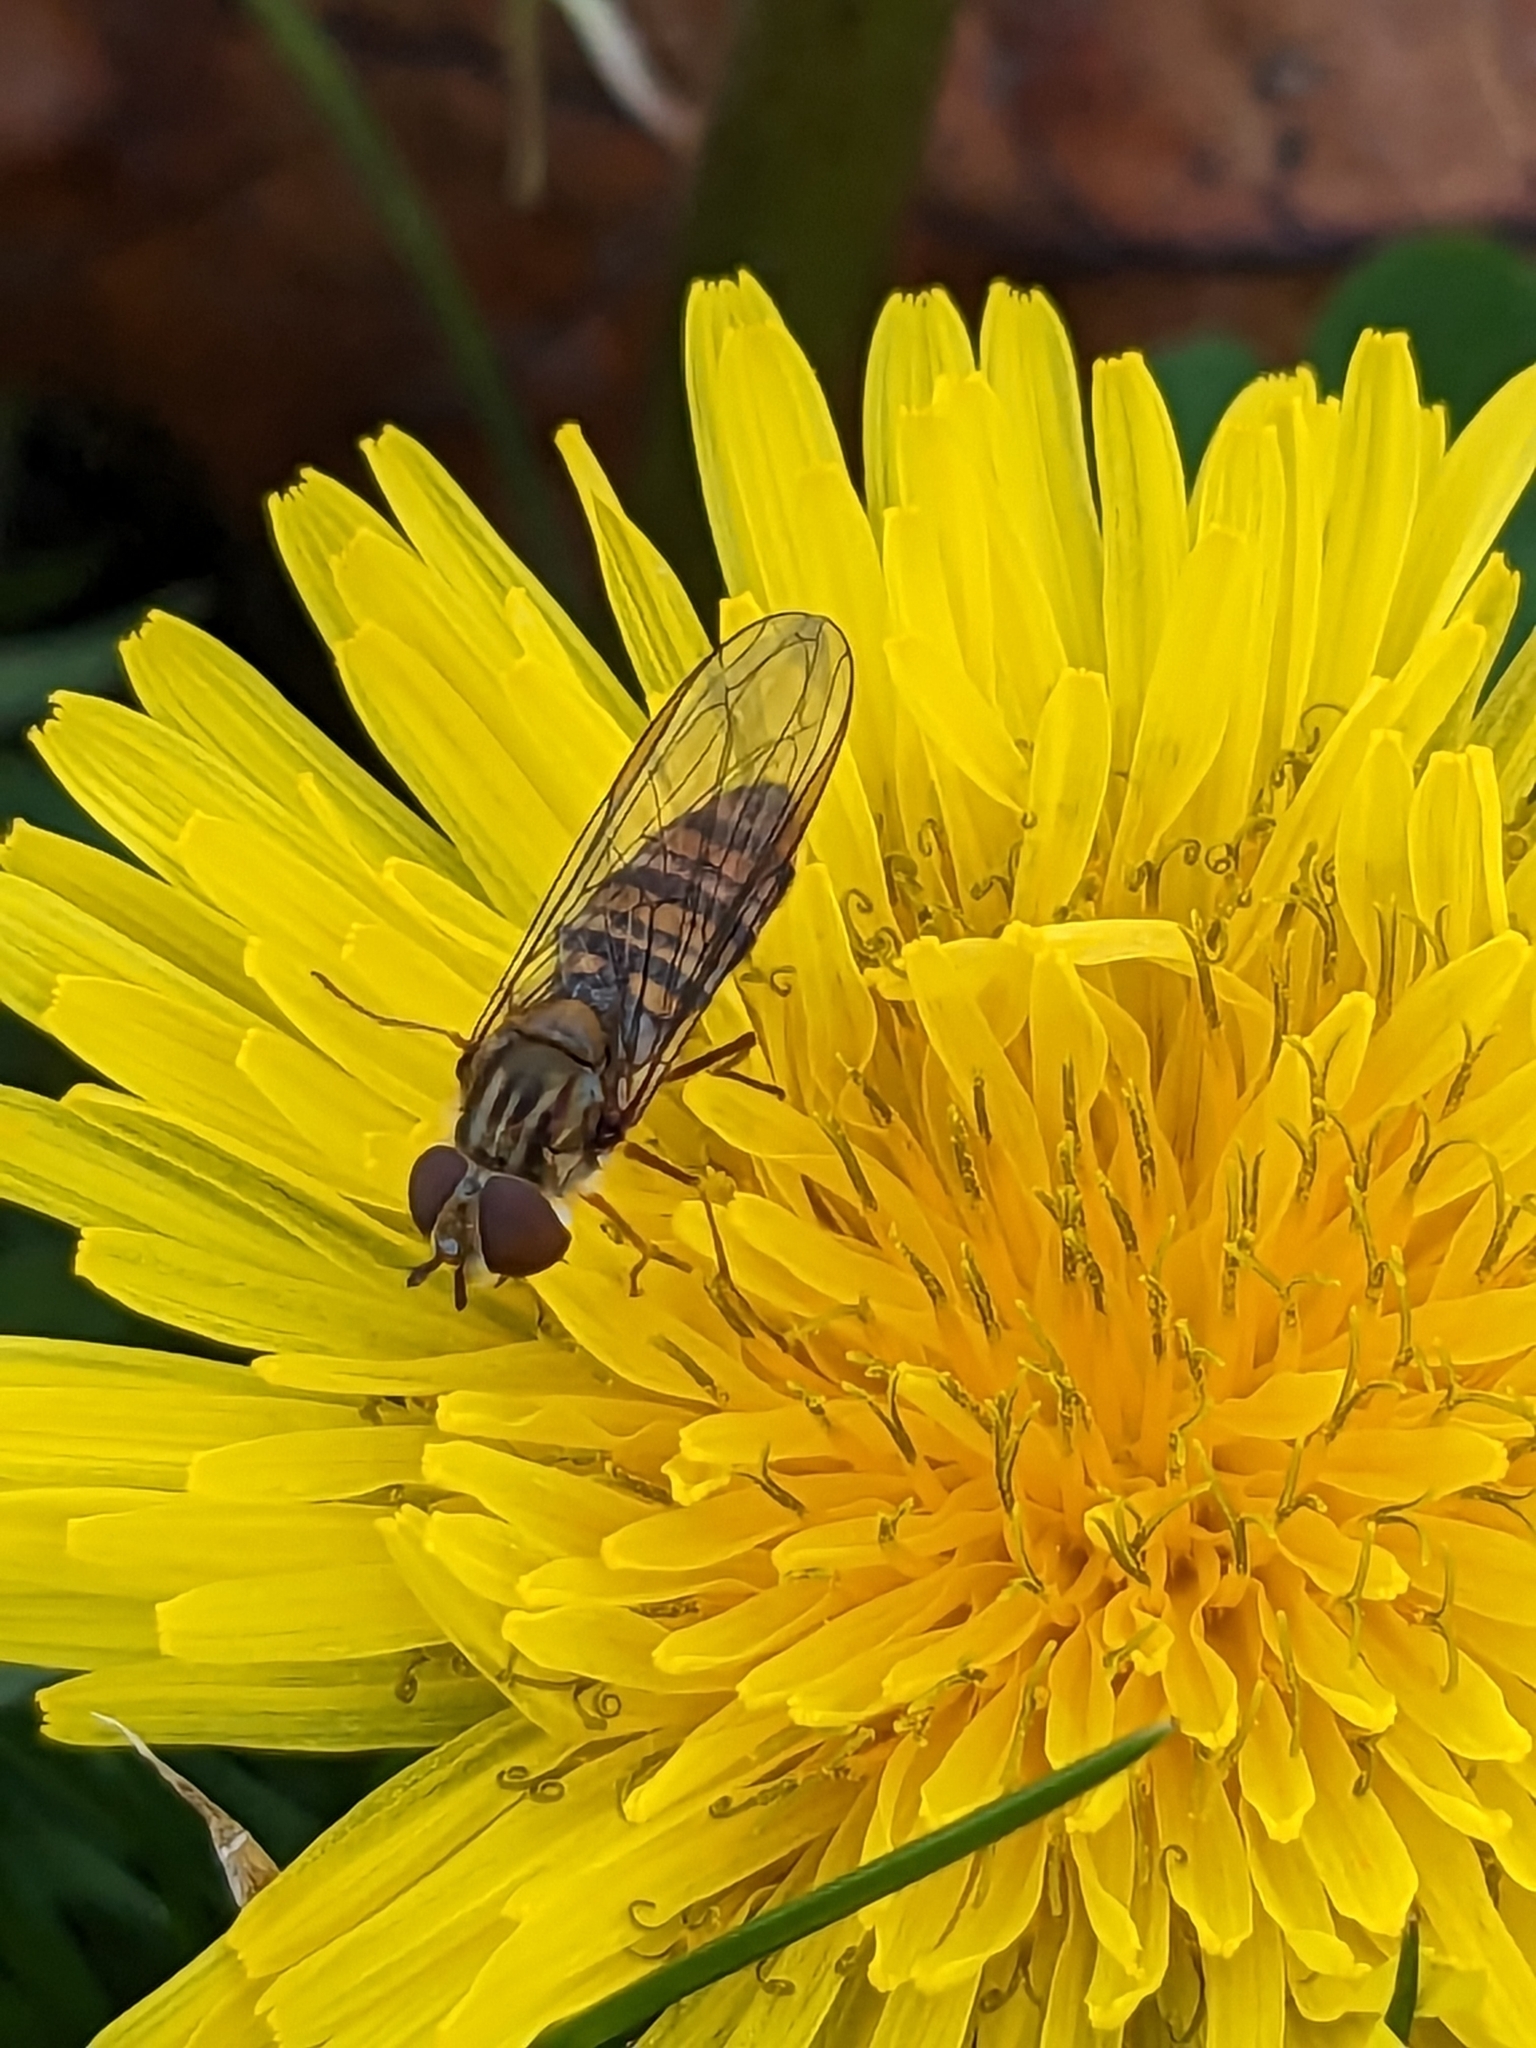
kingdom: Animalia
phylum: Arthropoda
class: Insecta
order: Diptera
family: Syrphidae
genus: Episyrphus
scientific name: Episyrphus balteatus
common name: Marmalade hoverfly
